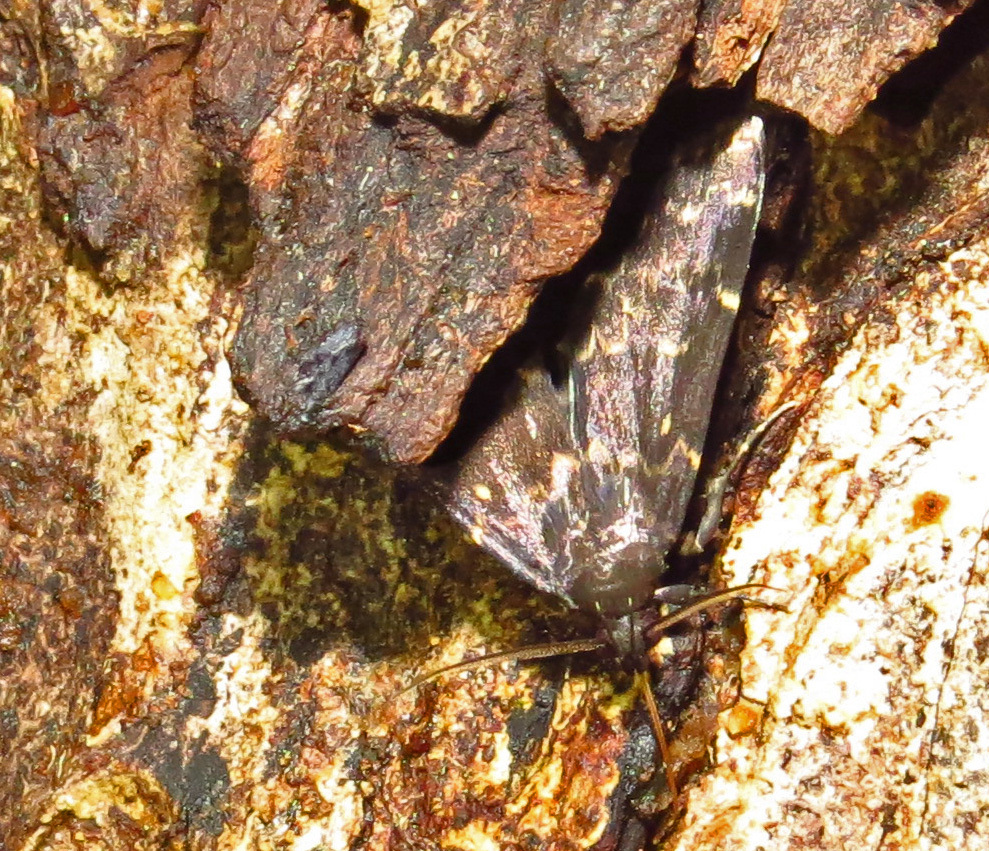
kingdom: Animalia
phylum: Arthropoda
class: Insecta
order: Lepidoptera
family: Erebidae
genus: Idia
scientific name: Idia lubricalis
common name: Twin-striped tabby
